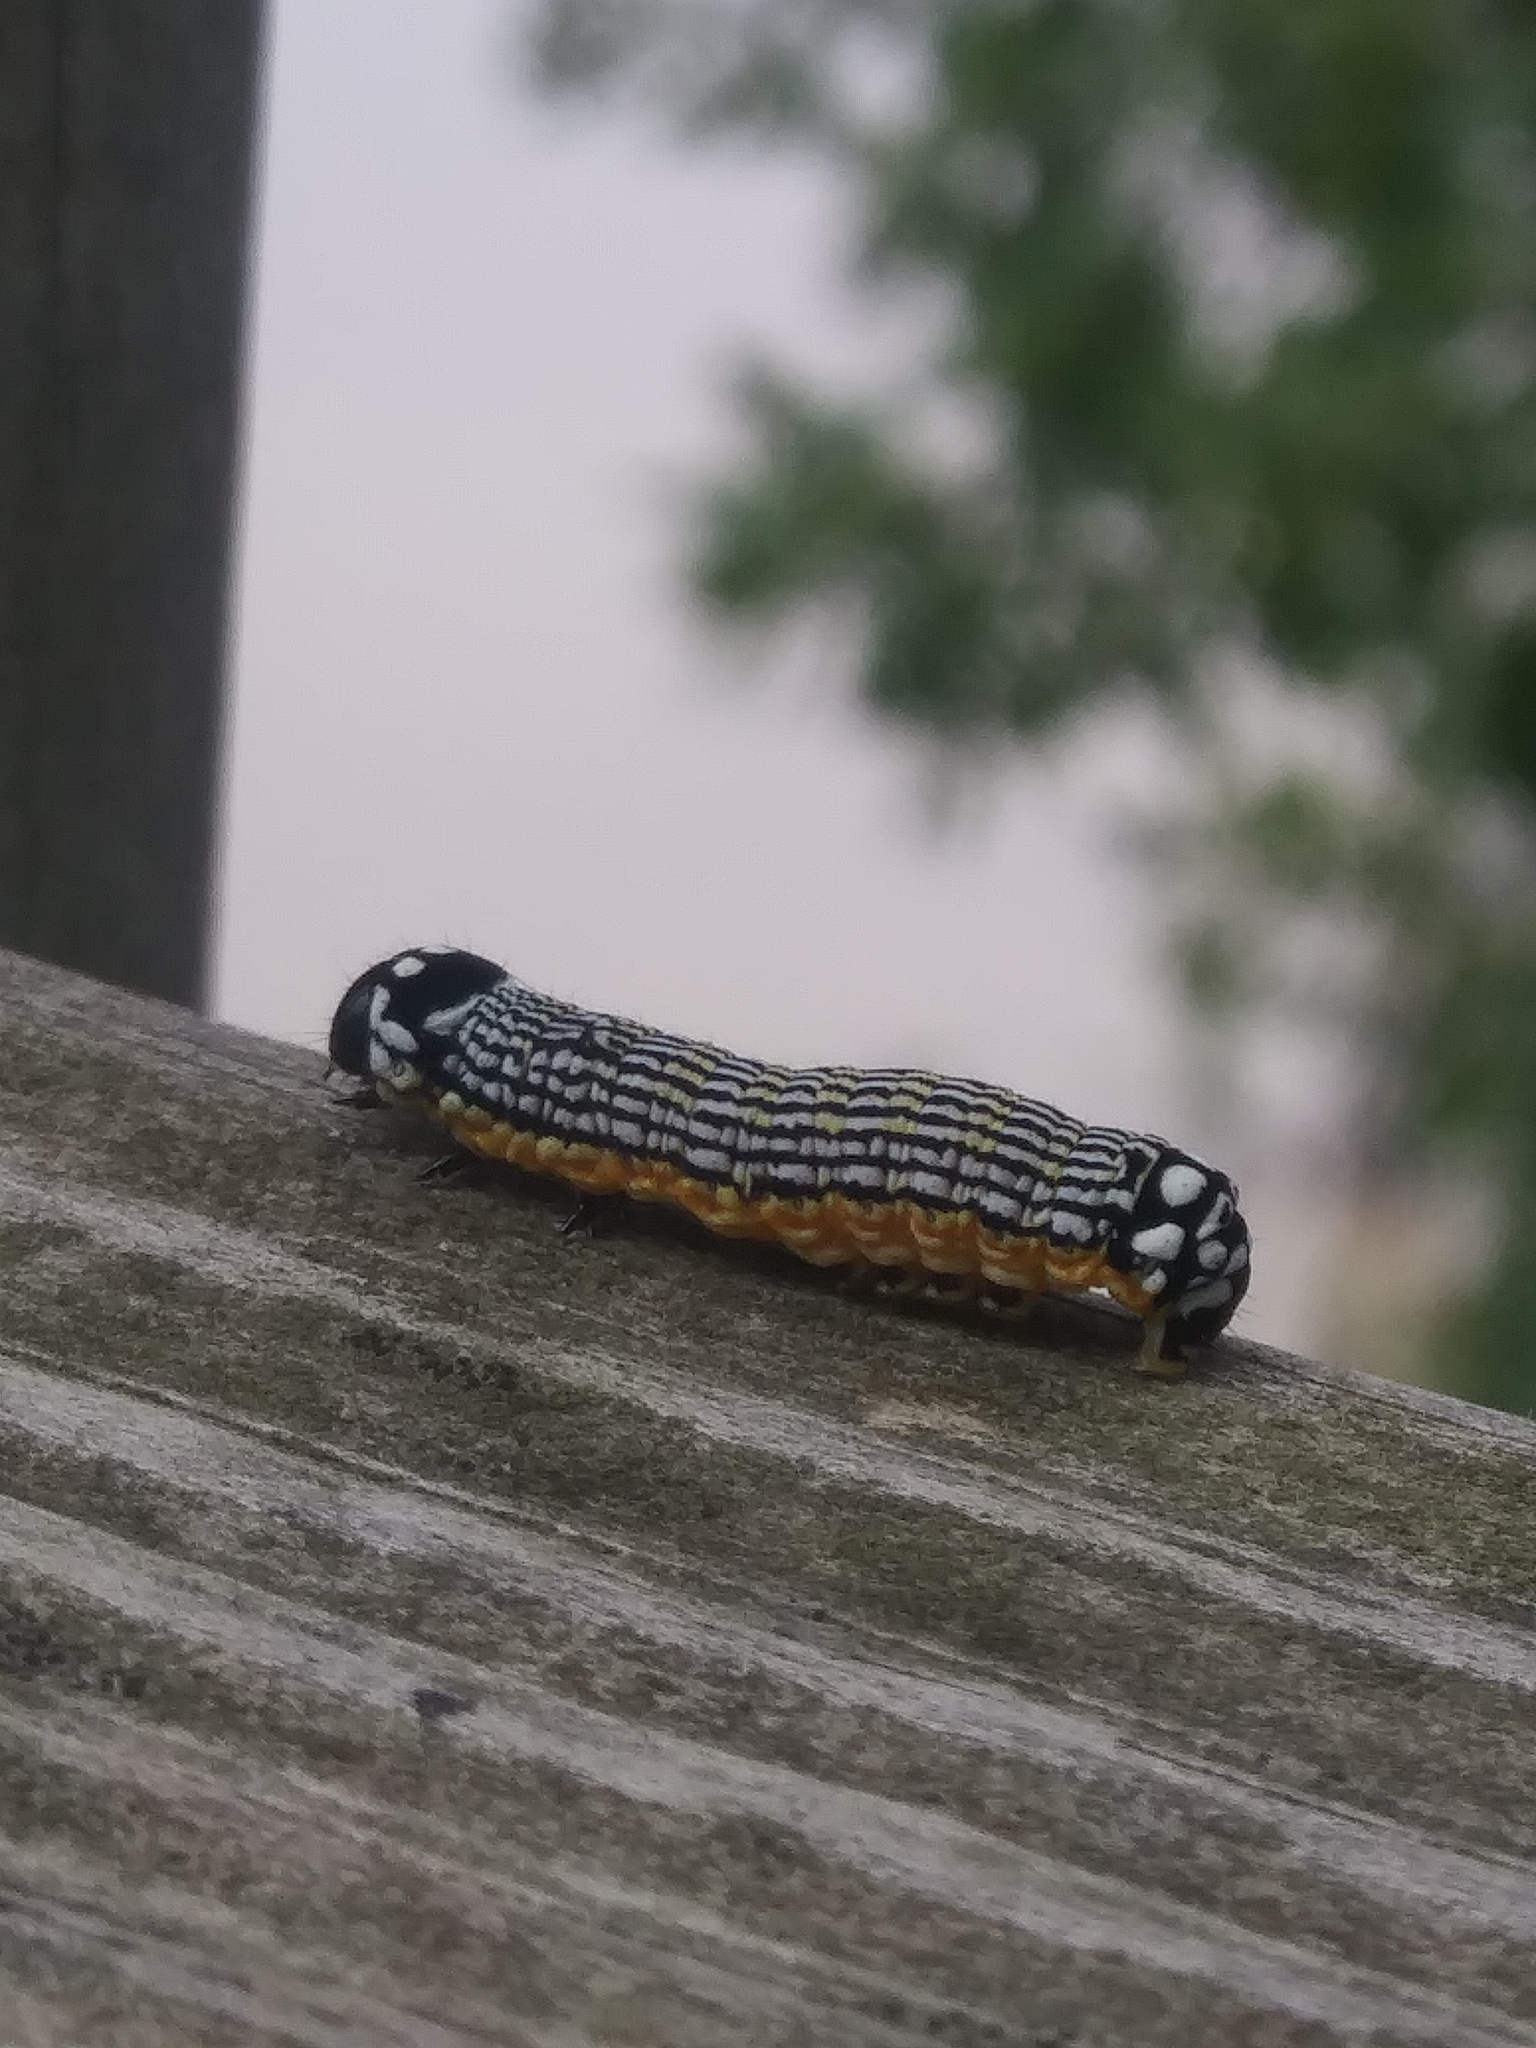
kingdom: Animalia
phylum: Arthropoda
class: Insecta
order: Lepidoptera
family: Noctuidae
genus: Phosphila
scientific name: Phosphila turbulenta
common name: Turbulent phosphila moth
